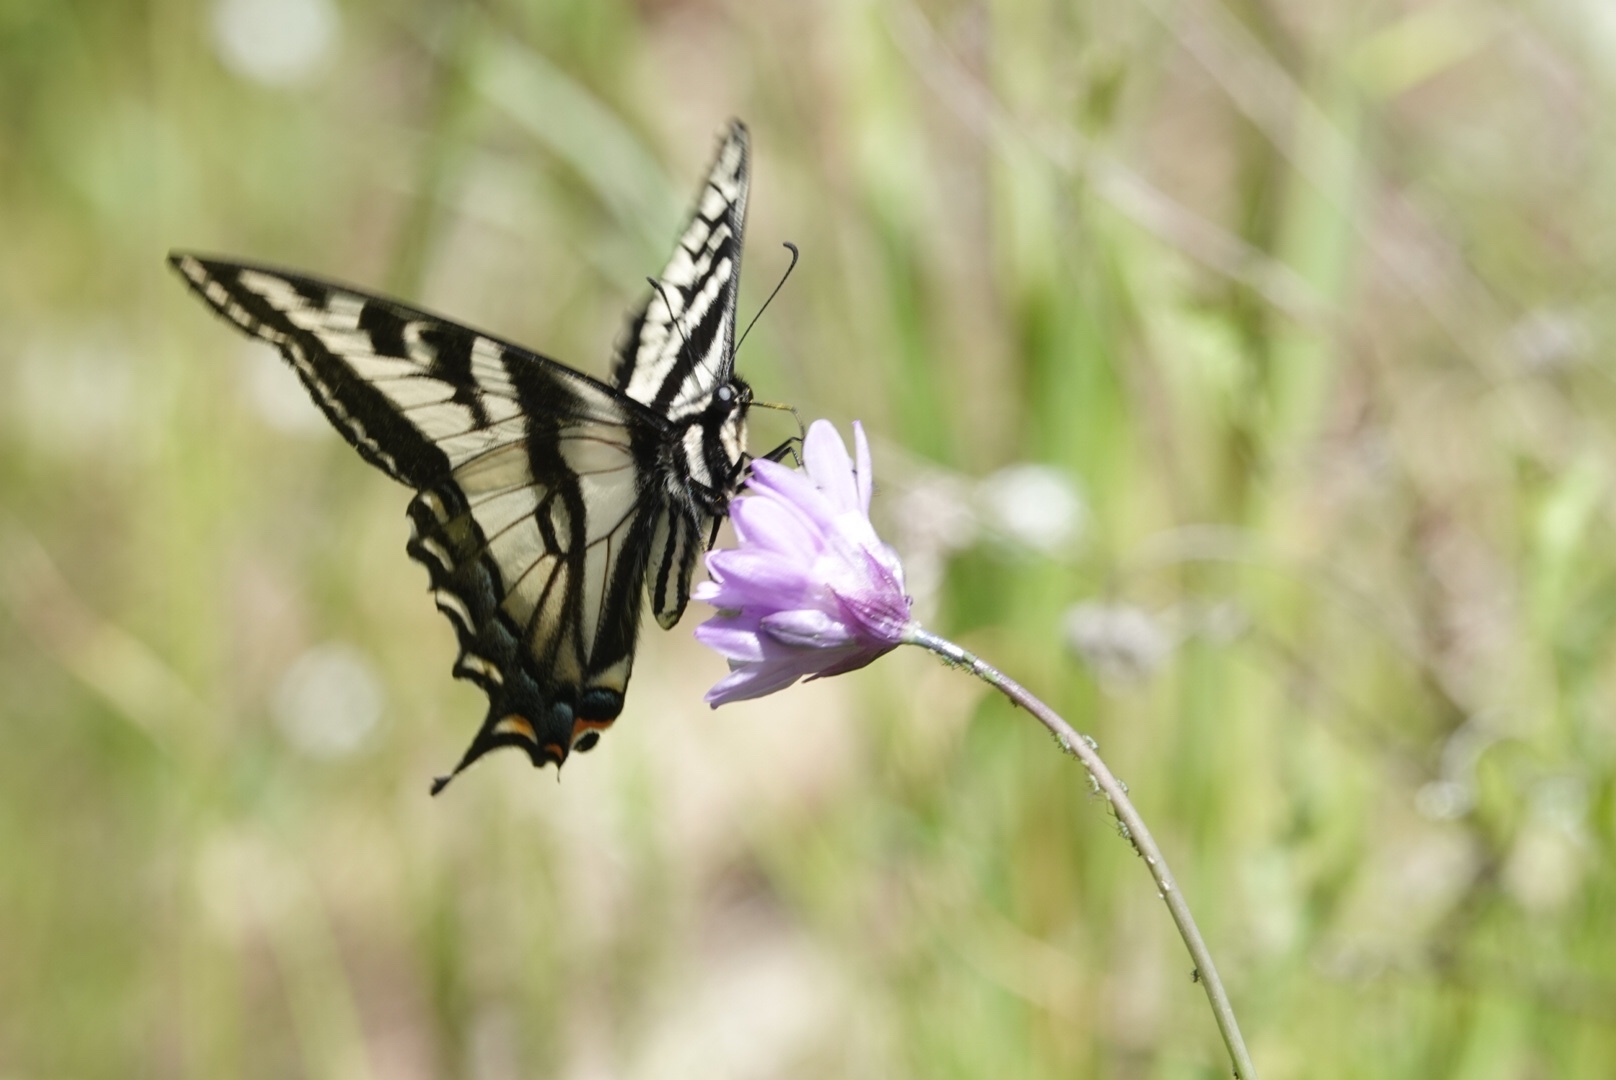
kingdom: Animalia
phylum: Arthropoda
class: Insecta
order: Lepidoptera
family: Papilionidae
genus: Papilio
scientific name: Papilio eurymedon
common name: Pale tiger swallowtail
